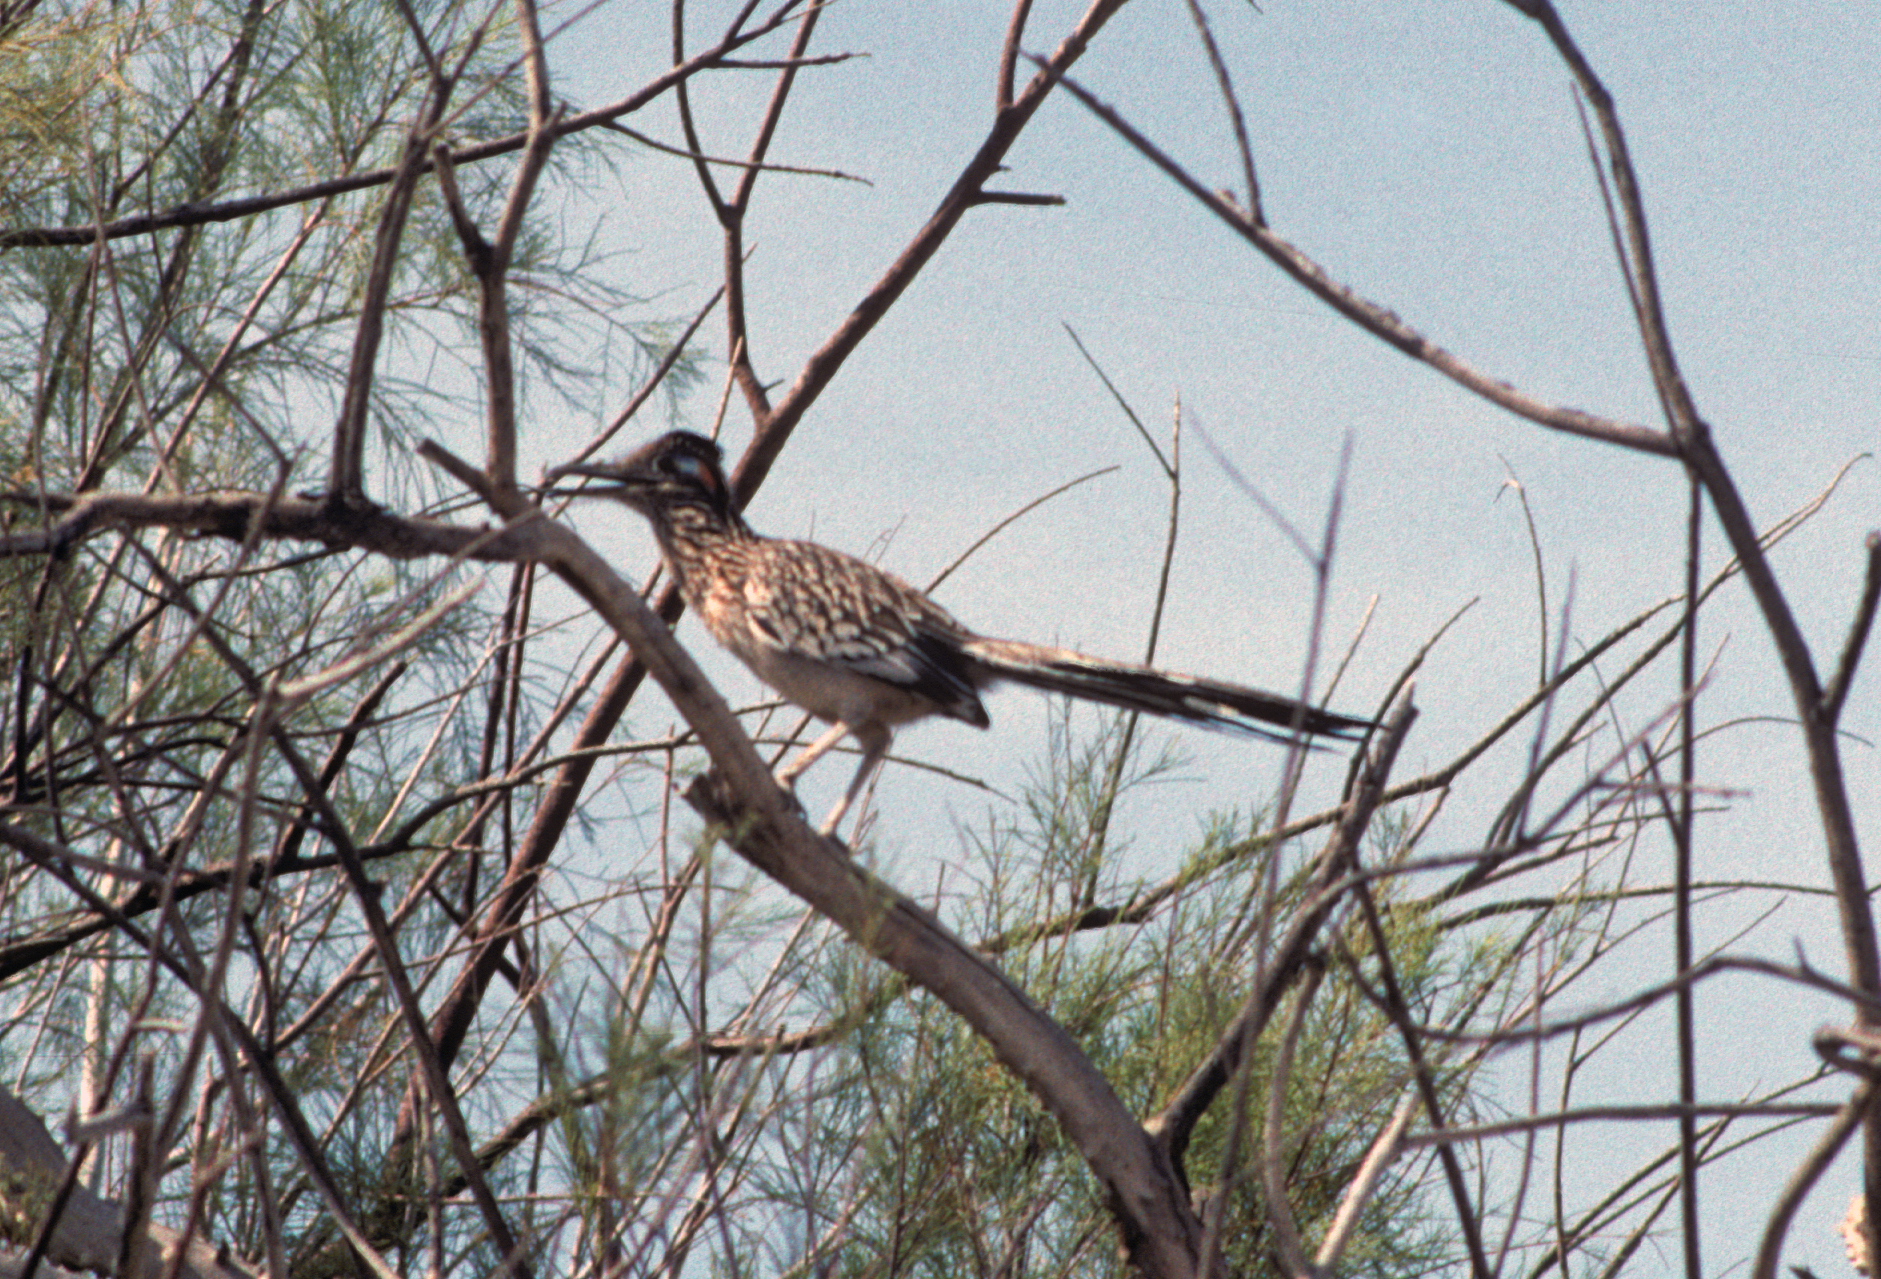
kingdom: Animalia
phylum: Chordata
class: Aves
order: Cuculiformes
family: Cuculidae
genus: Geococcyx
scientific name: Geococcyx californianus
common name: Greater roadrunner
